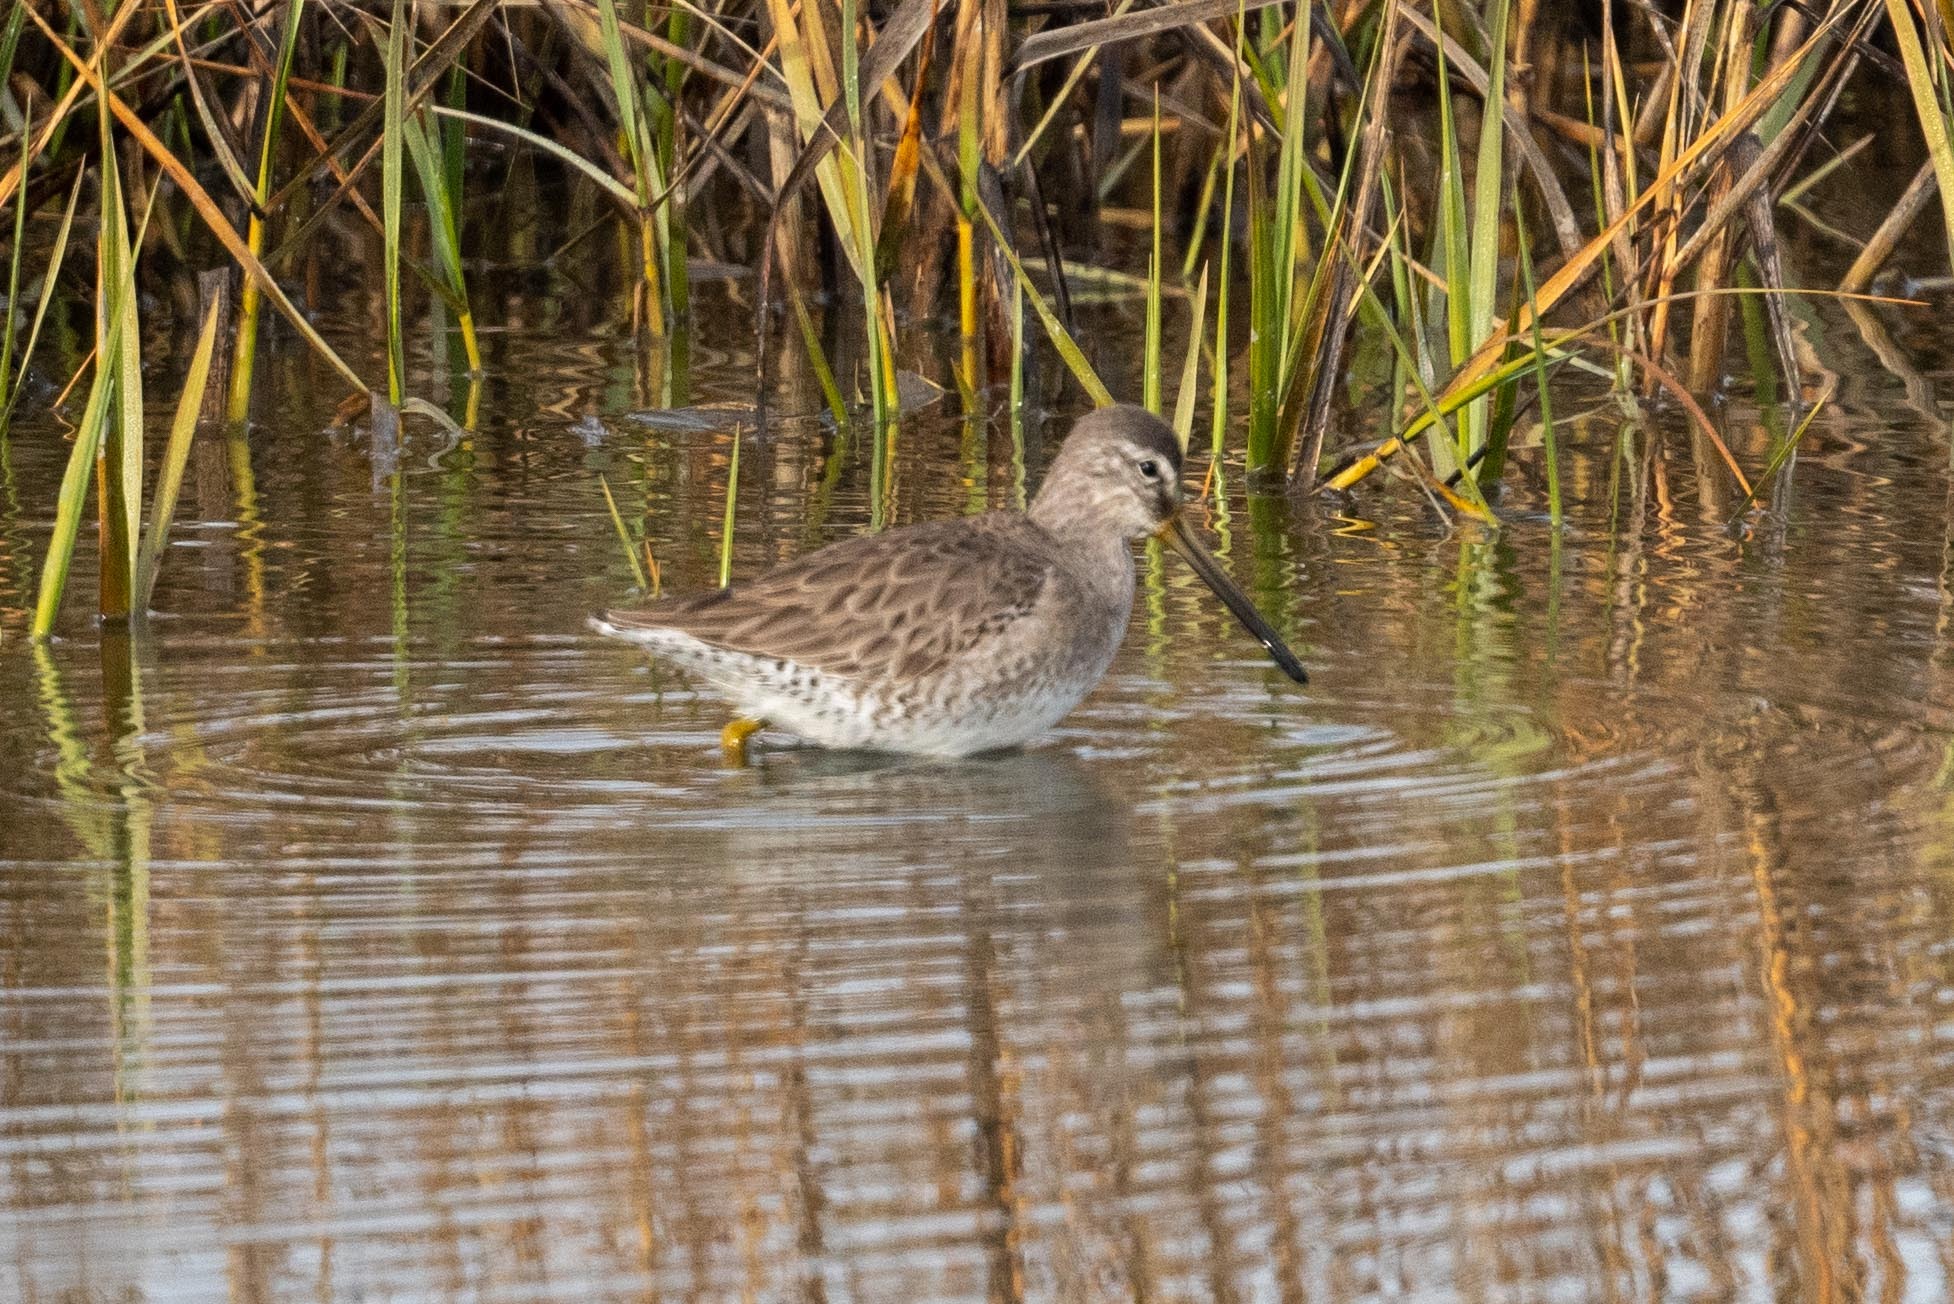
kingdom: Animalia
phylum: Chordata
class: Aves
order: Charadriiformes
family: Scolopacidae
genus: Limnodromus
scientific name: Limnodromus scolopaceus
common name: Long-billed dowitcher
